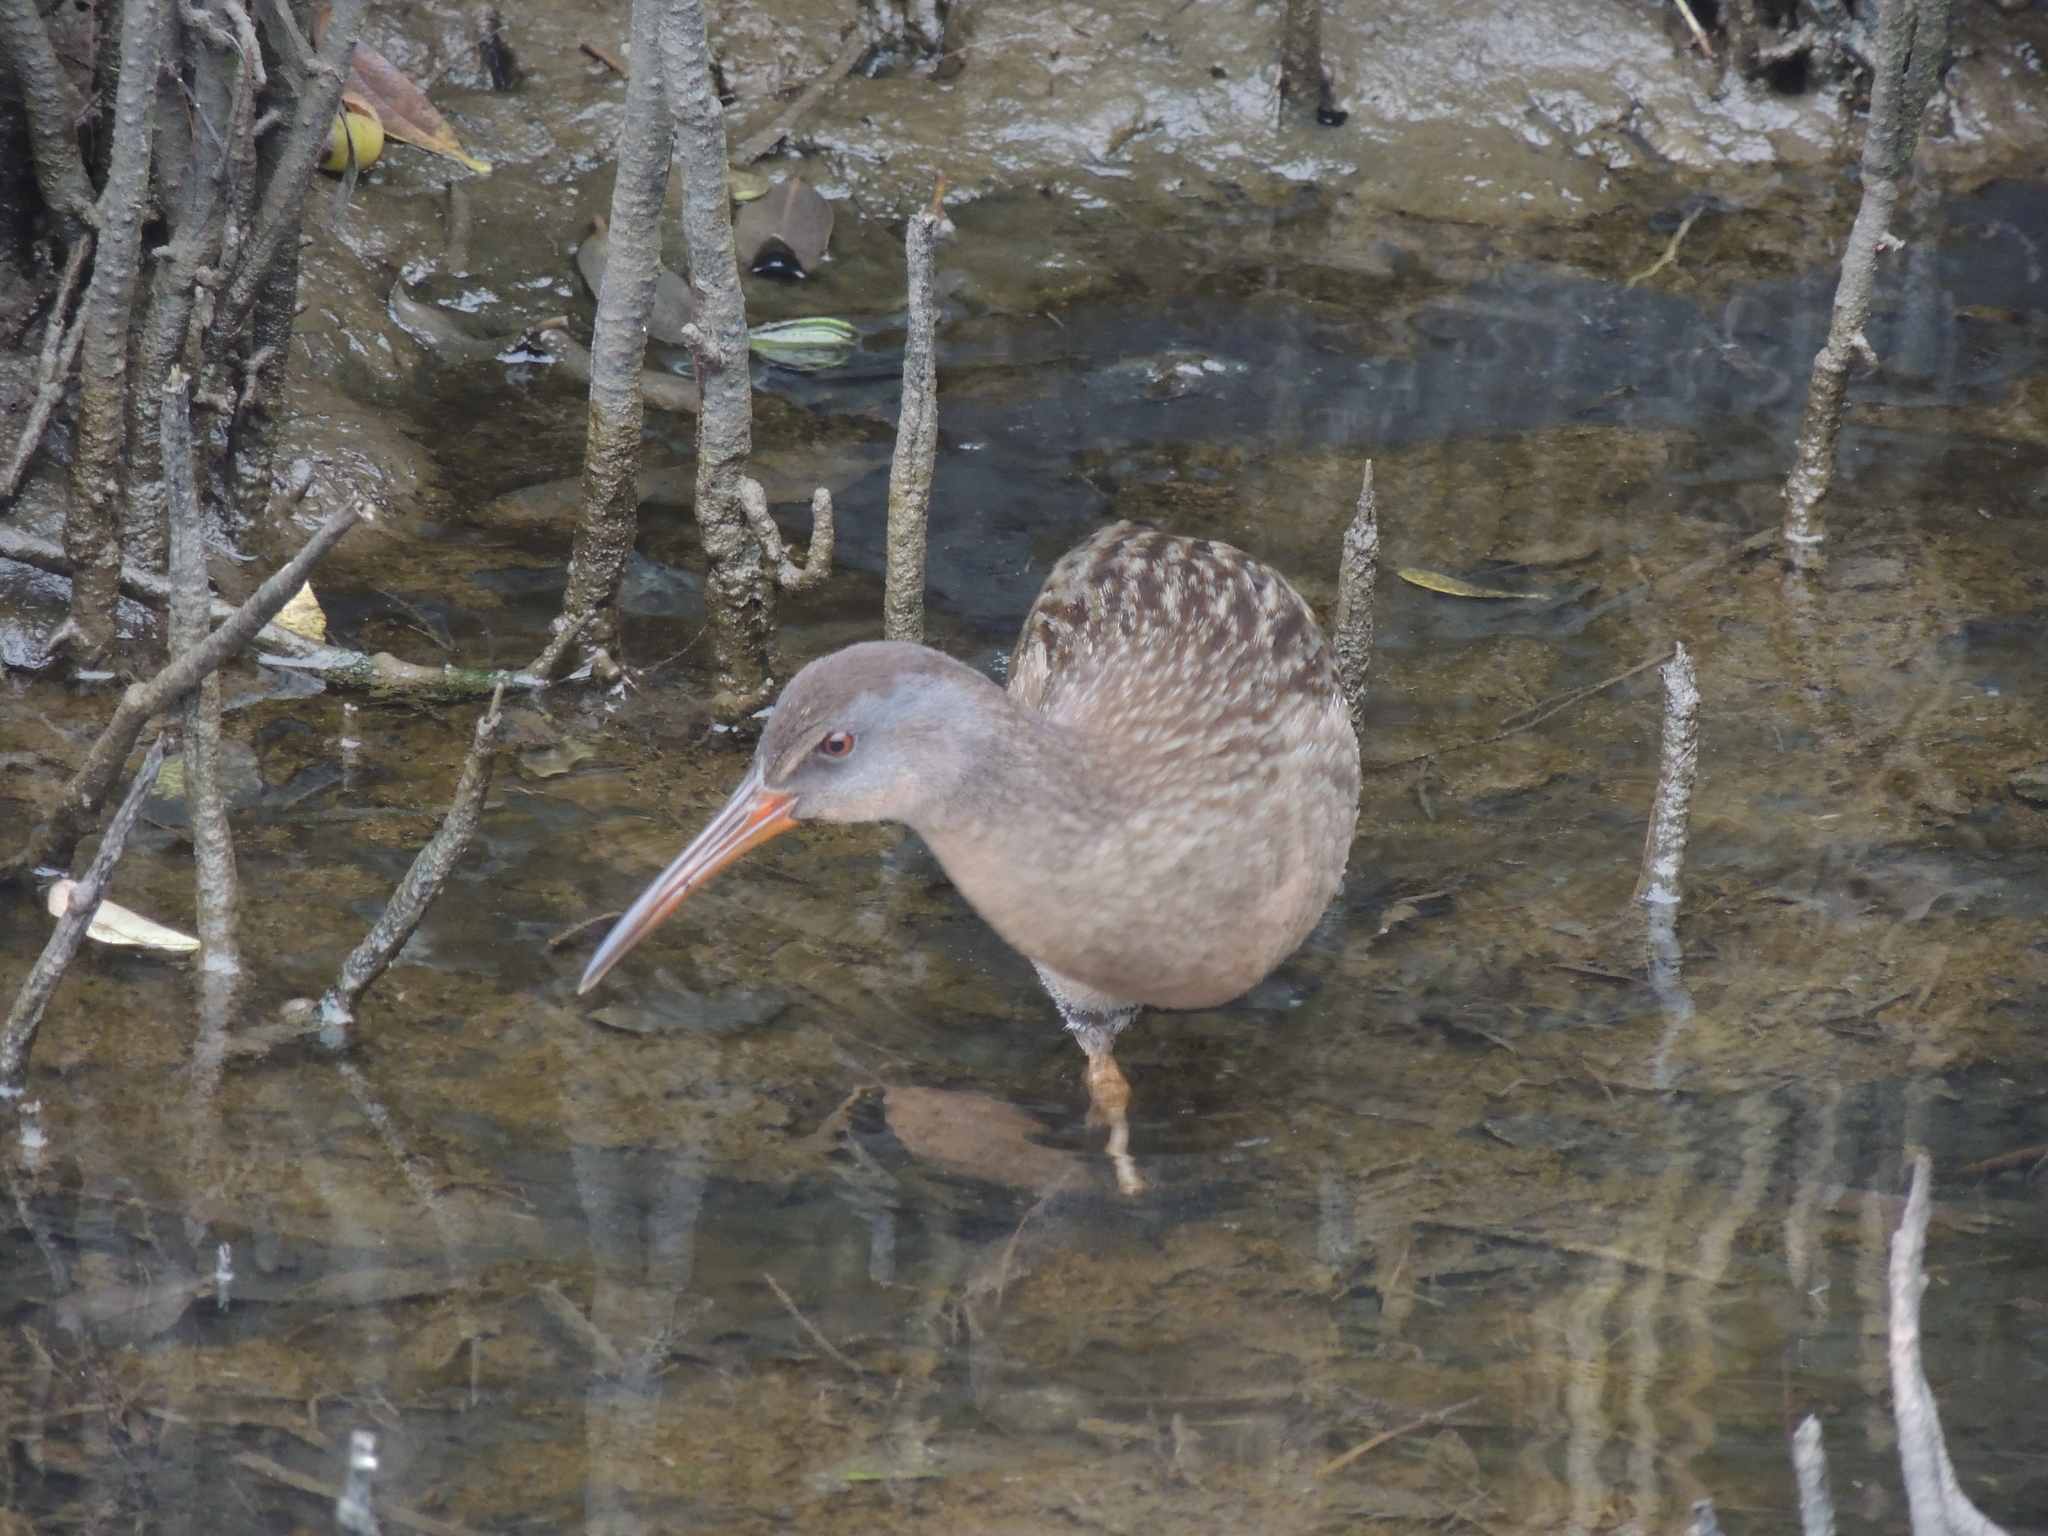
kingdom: Animalia
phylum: Chordata
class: Aves
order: Gruiformes
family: Rallidae
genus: Rallus
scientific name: Rallus crepitans
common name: Clapper rail
